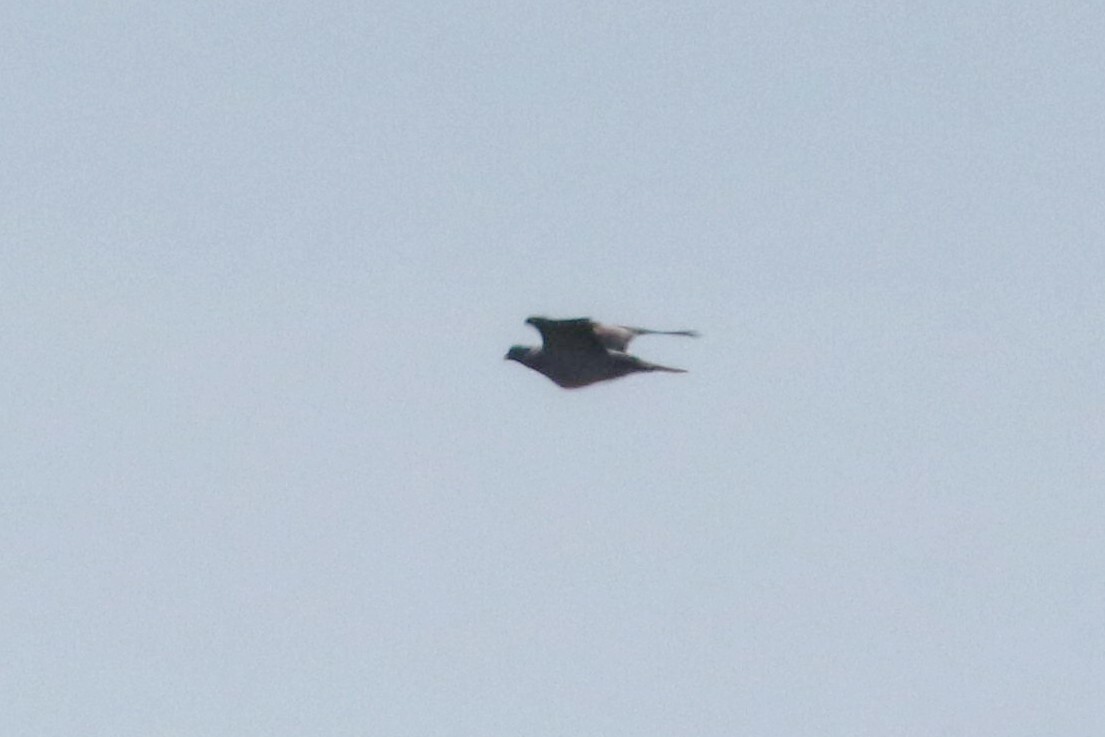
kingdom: Animalia
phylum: Chordata
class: Aves
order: Columbiformes
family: Columbidae
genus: Columba
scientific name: Columba palumbus
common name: Common wood pigeon
